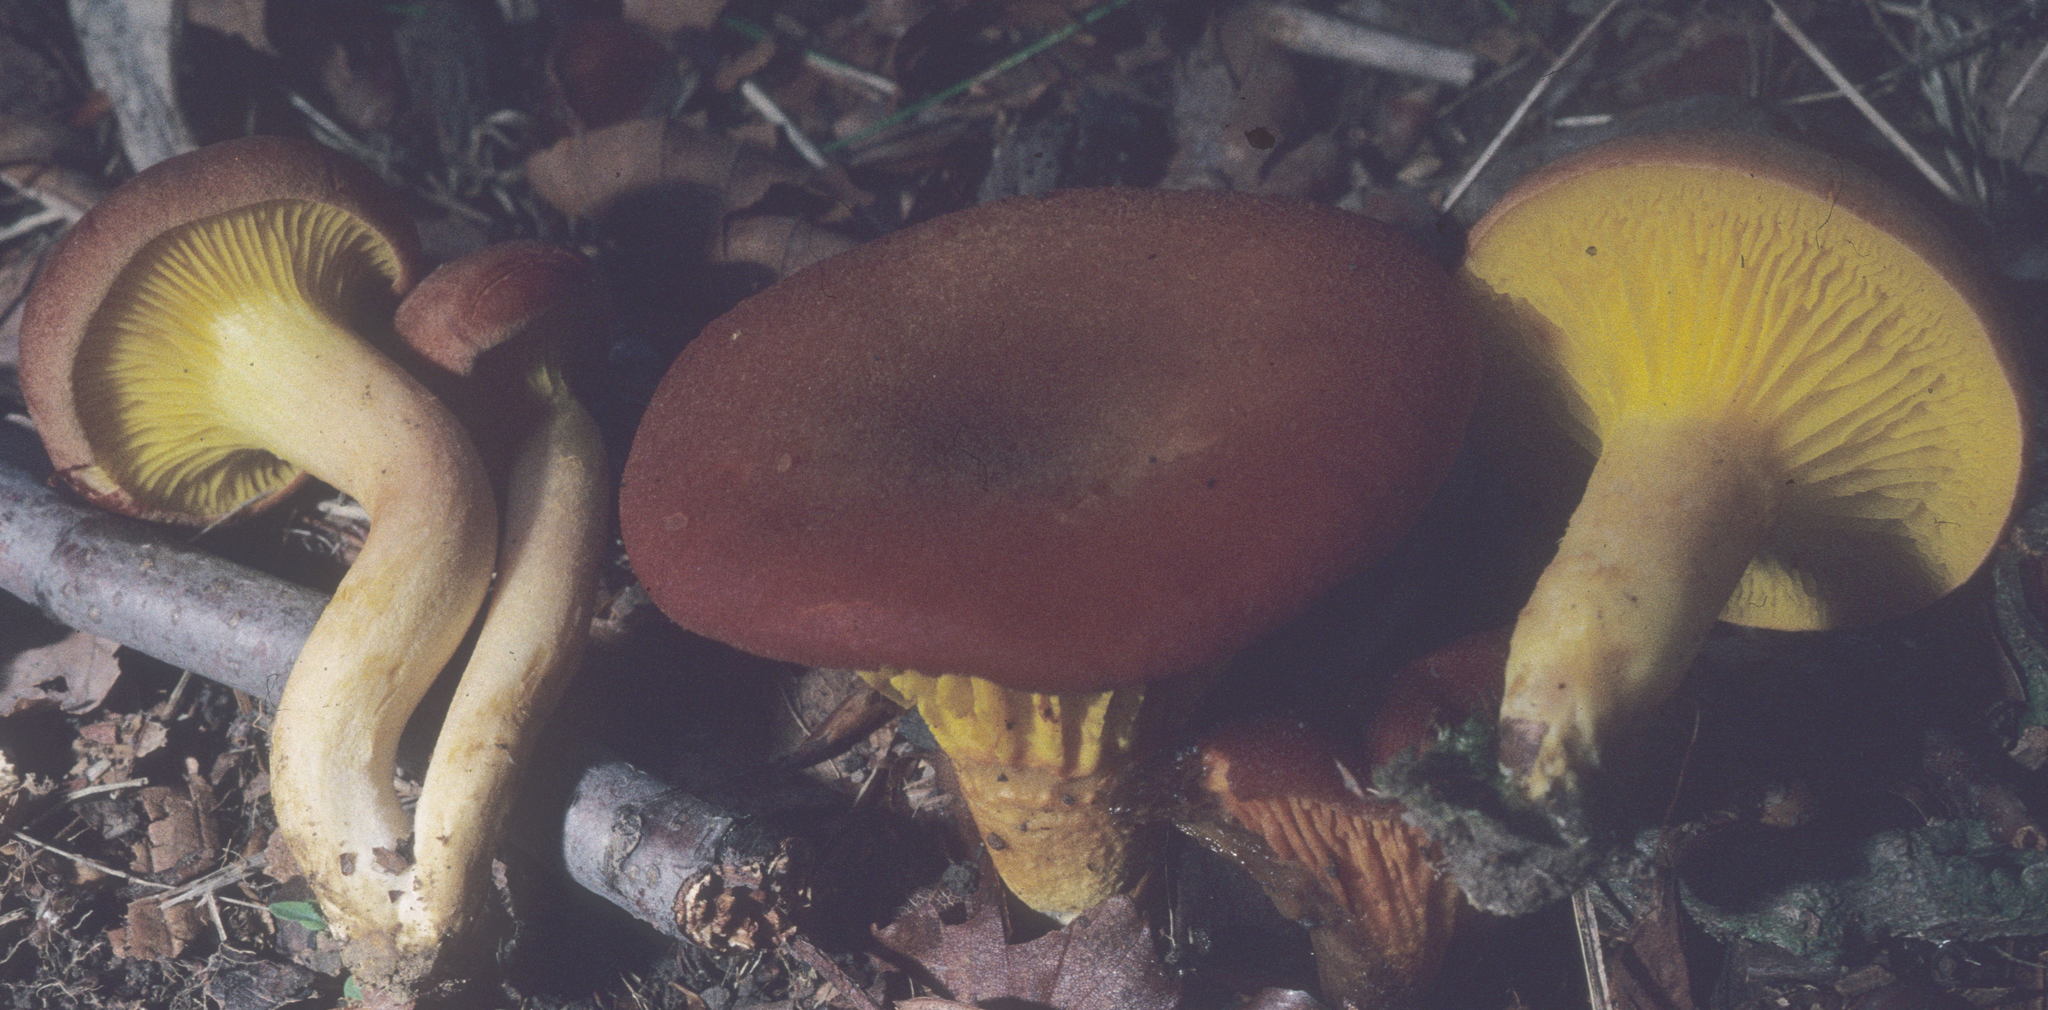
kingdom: Fungi
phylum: Basidiomycota
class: Agaricomycetes
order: Boletales
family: Boletaceae
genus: Phylloporus
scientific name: Phylloporus leucomycelinus
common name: Gilled bolete
